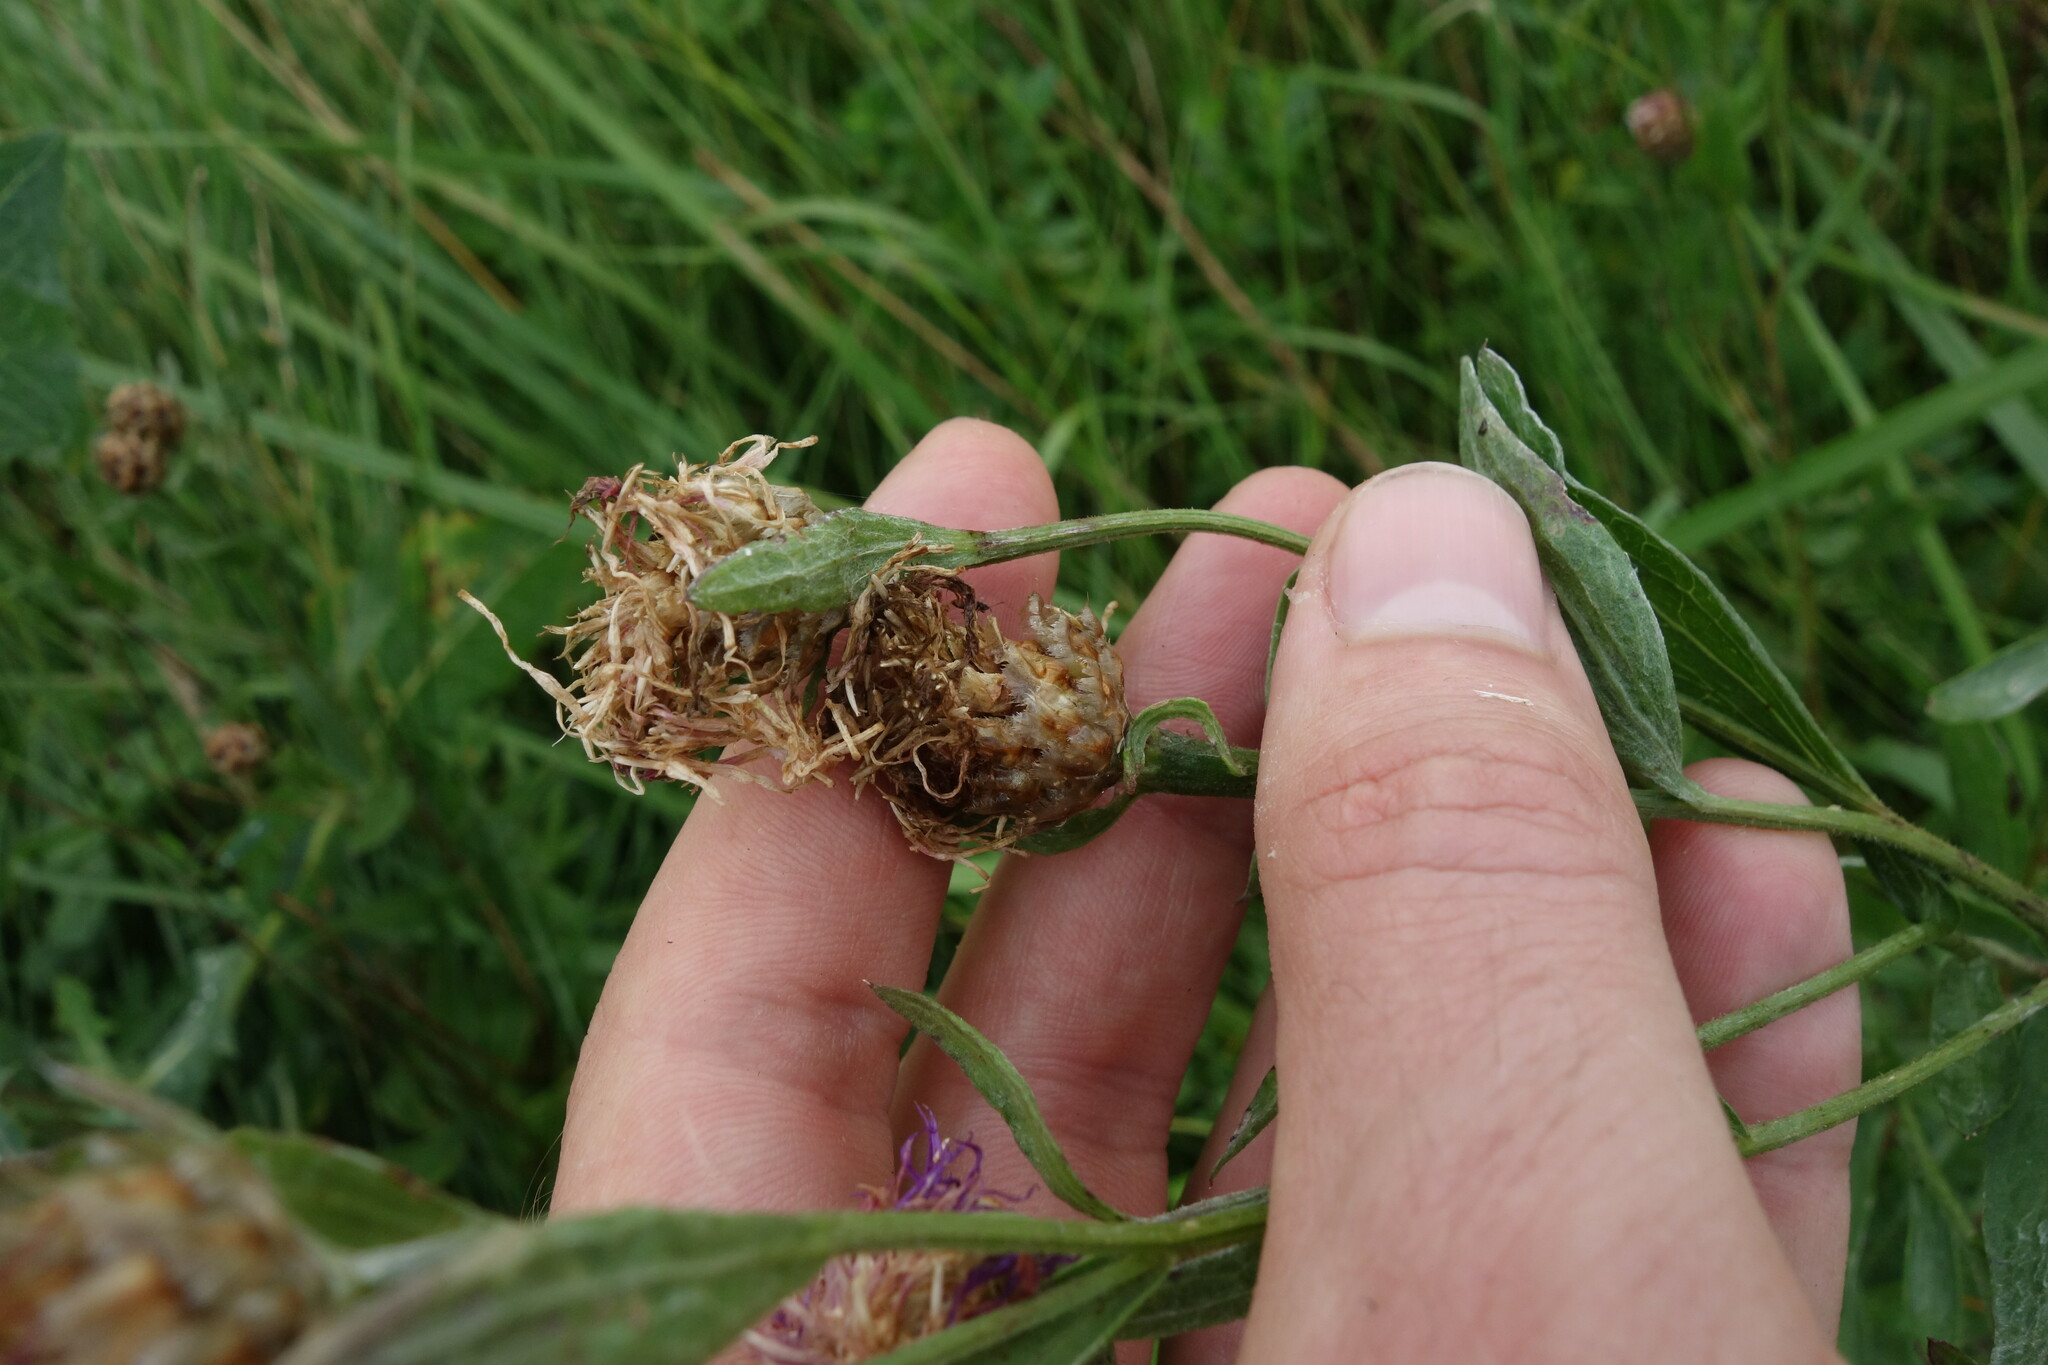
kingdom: Plantae
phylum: Tracheophyta
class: Magnoliopsida
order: Asterales
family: Asteraceae
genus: Centaurea
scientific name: Centaurea jacea
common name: Brown knapweed
